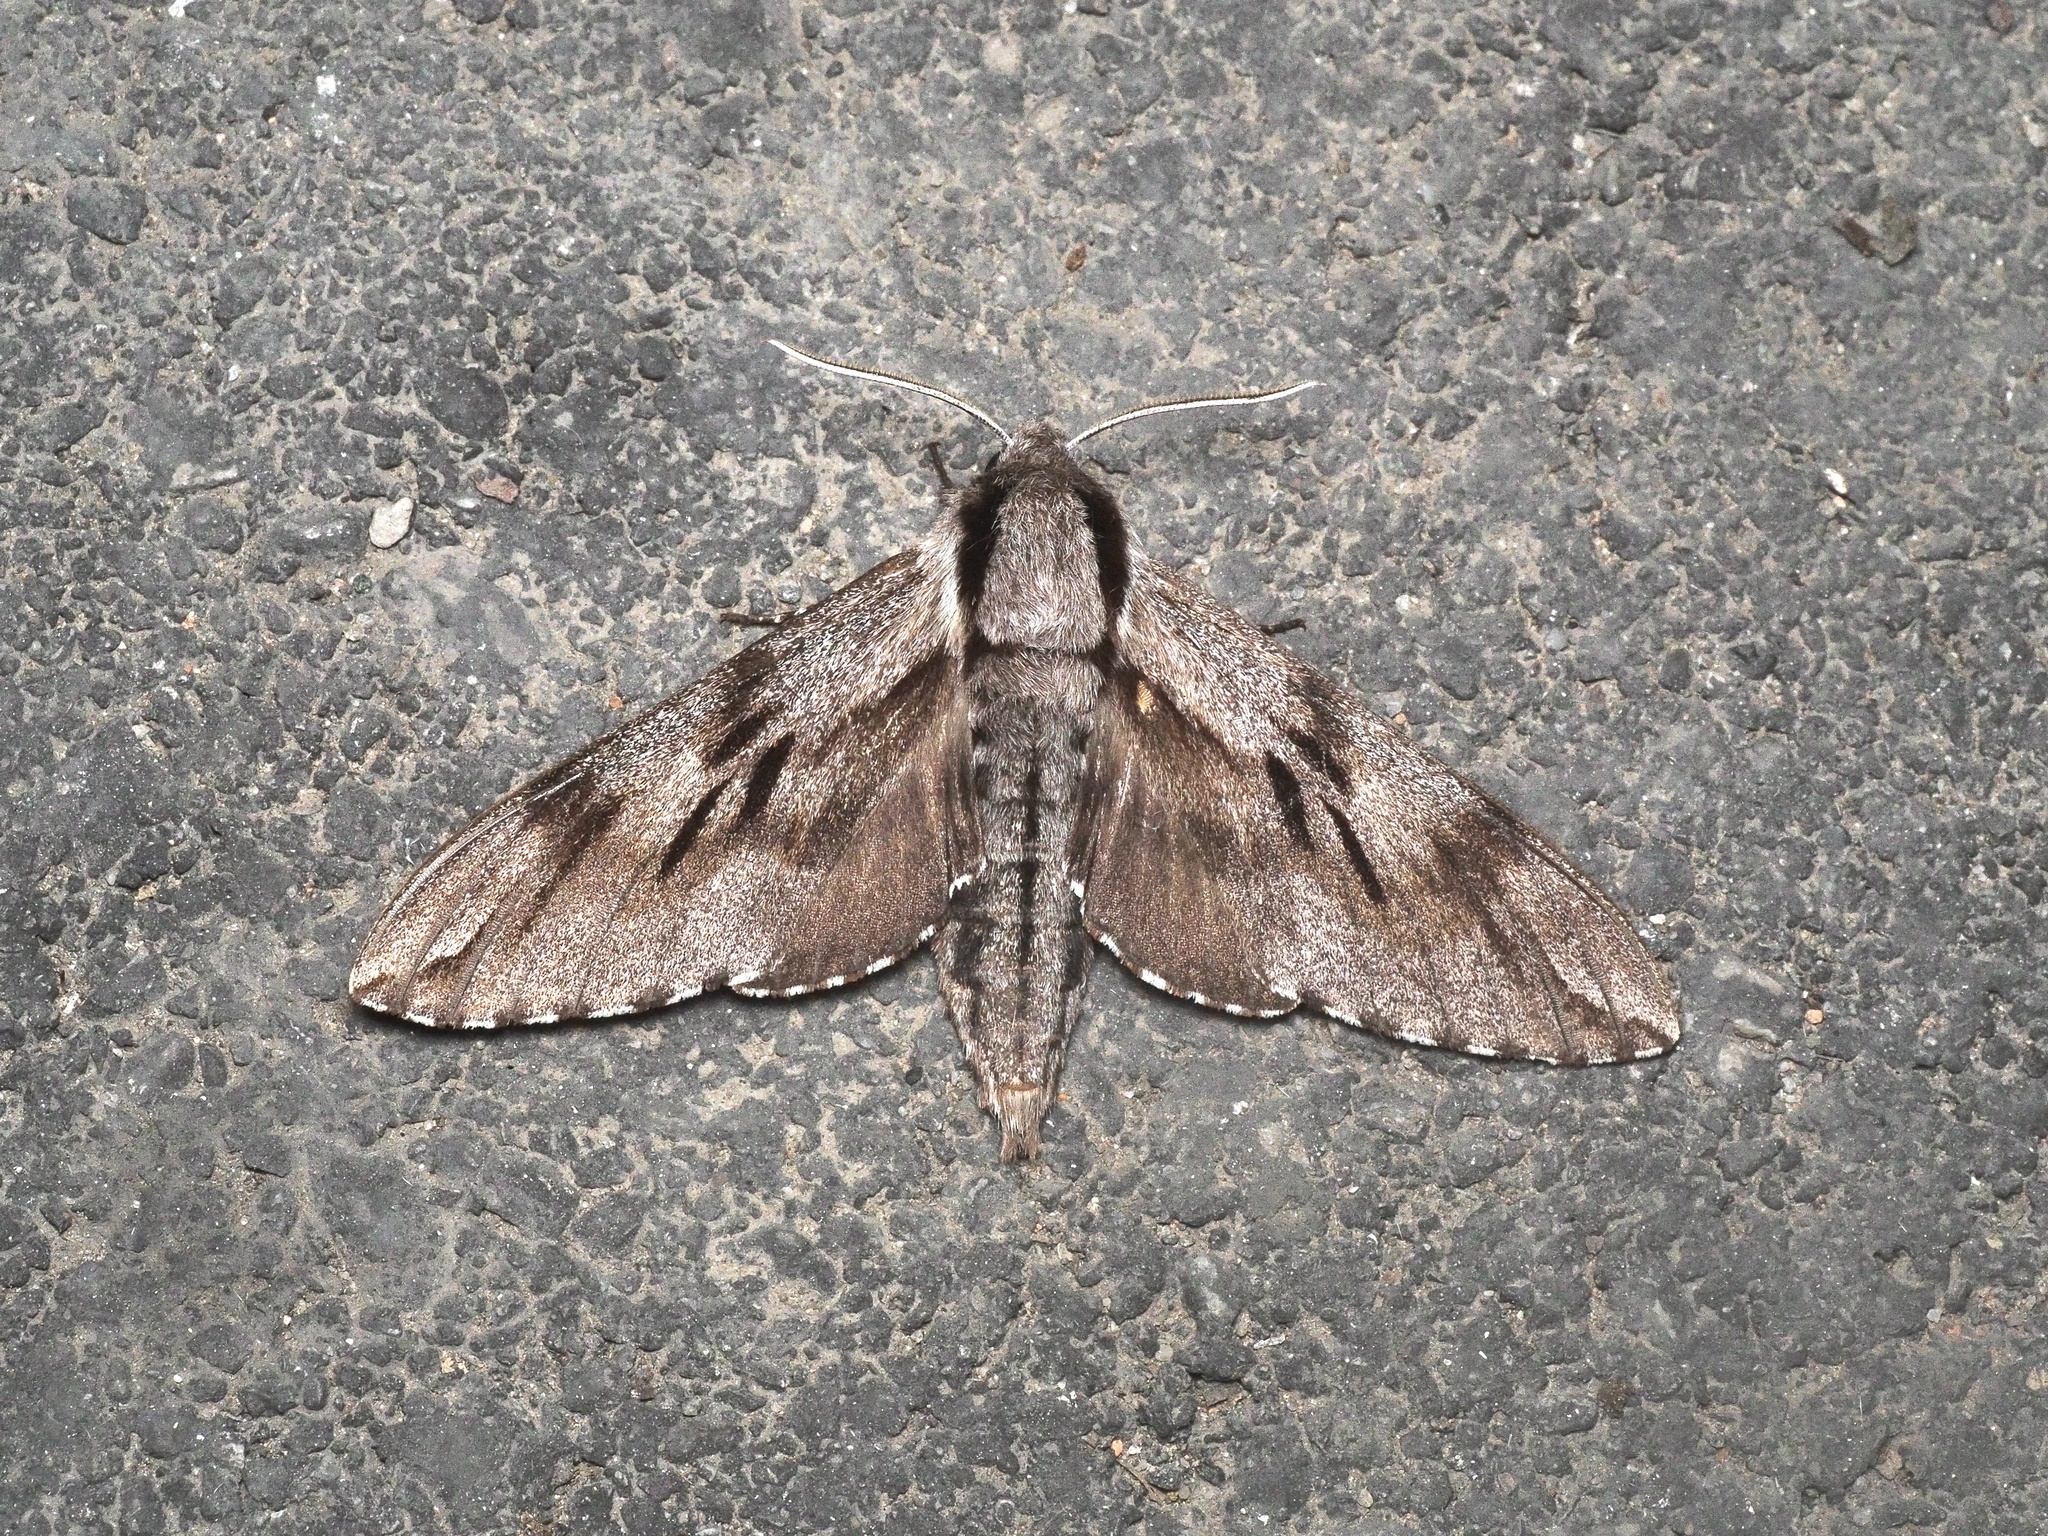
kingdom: Animalia
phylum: Arthropoda
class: Insecta
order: Lepidoptera
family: Sphingidae
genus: Sphinx
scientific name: Sphinx pinastri
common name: Pine hawk-moth
